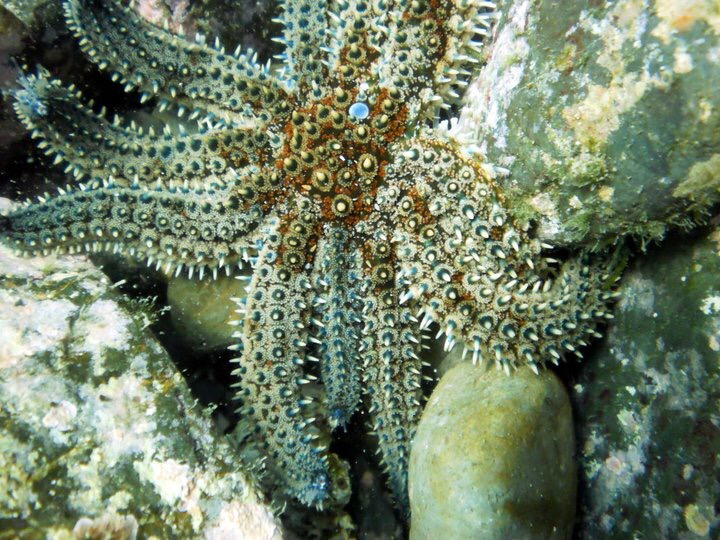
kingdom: Animalia
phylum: Echinodermata
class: Asteroidea
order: Forcipulatida
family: Asteriidae
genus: Coscinasterias
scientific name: Coscinasterias muricata
